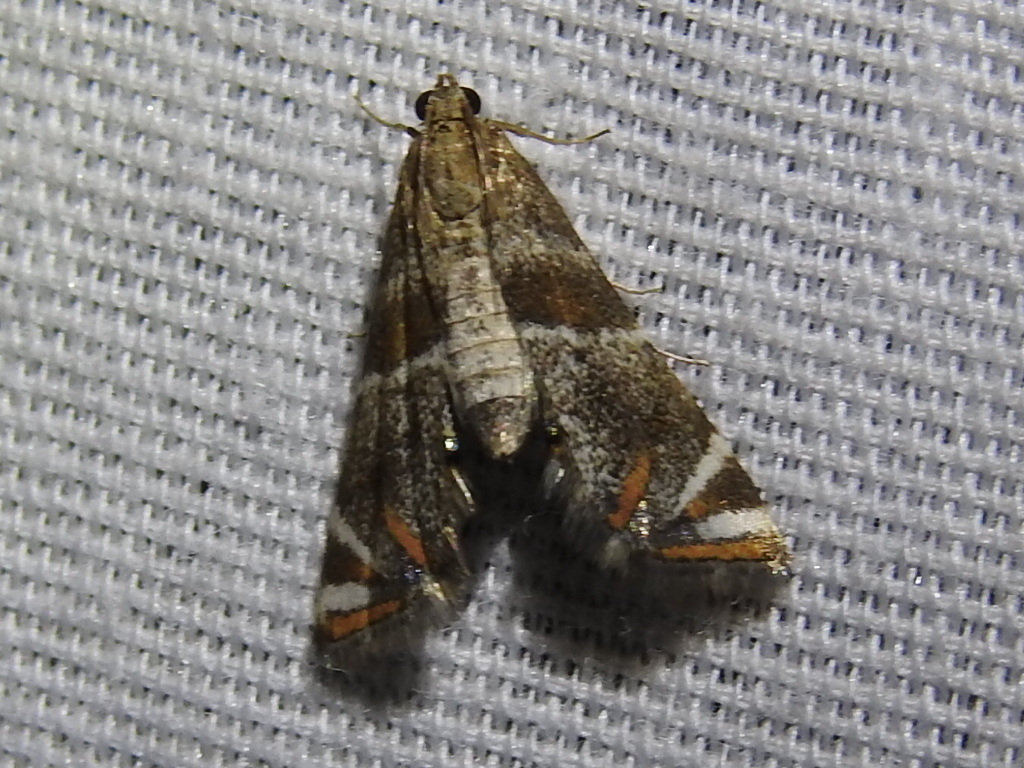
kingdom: Animalia
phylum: Arthropoda
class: Insecta
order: Lepidoptera
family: Crambidae
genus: Petrophila
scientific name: Petrophila jaliscalis
